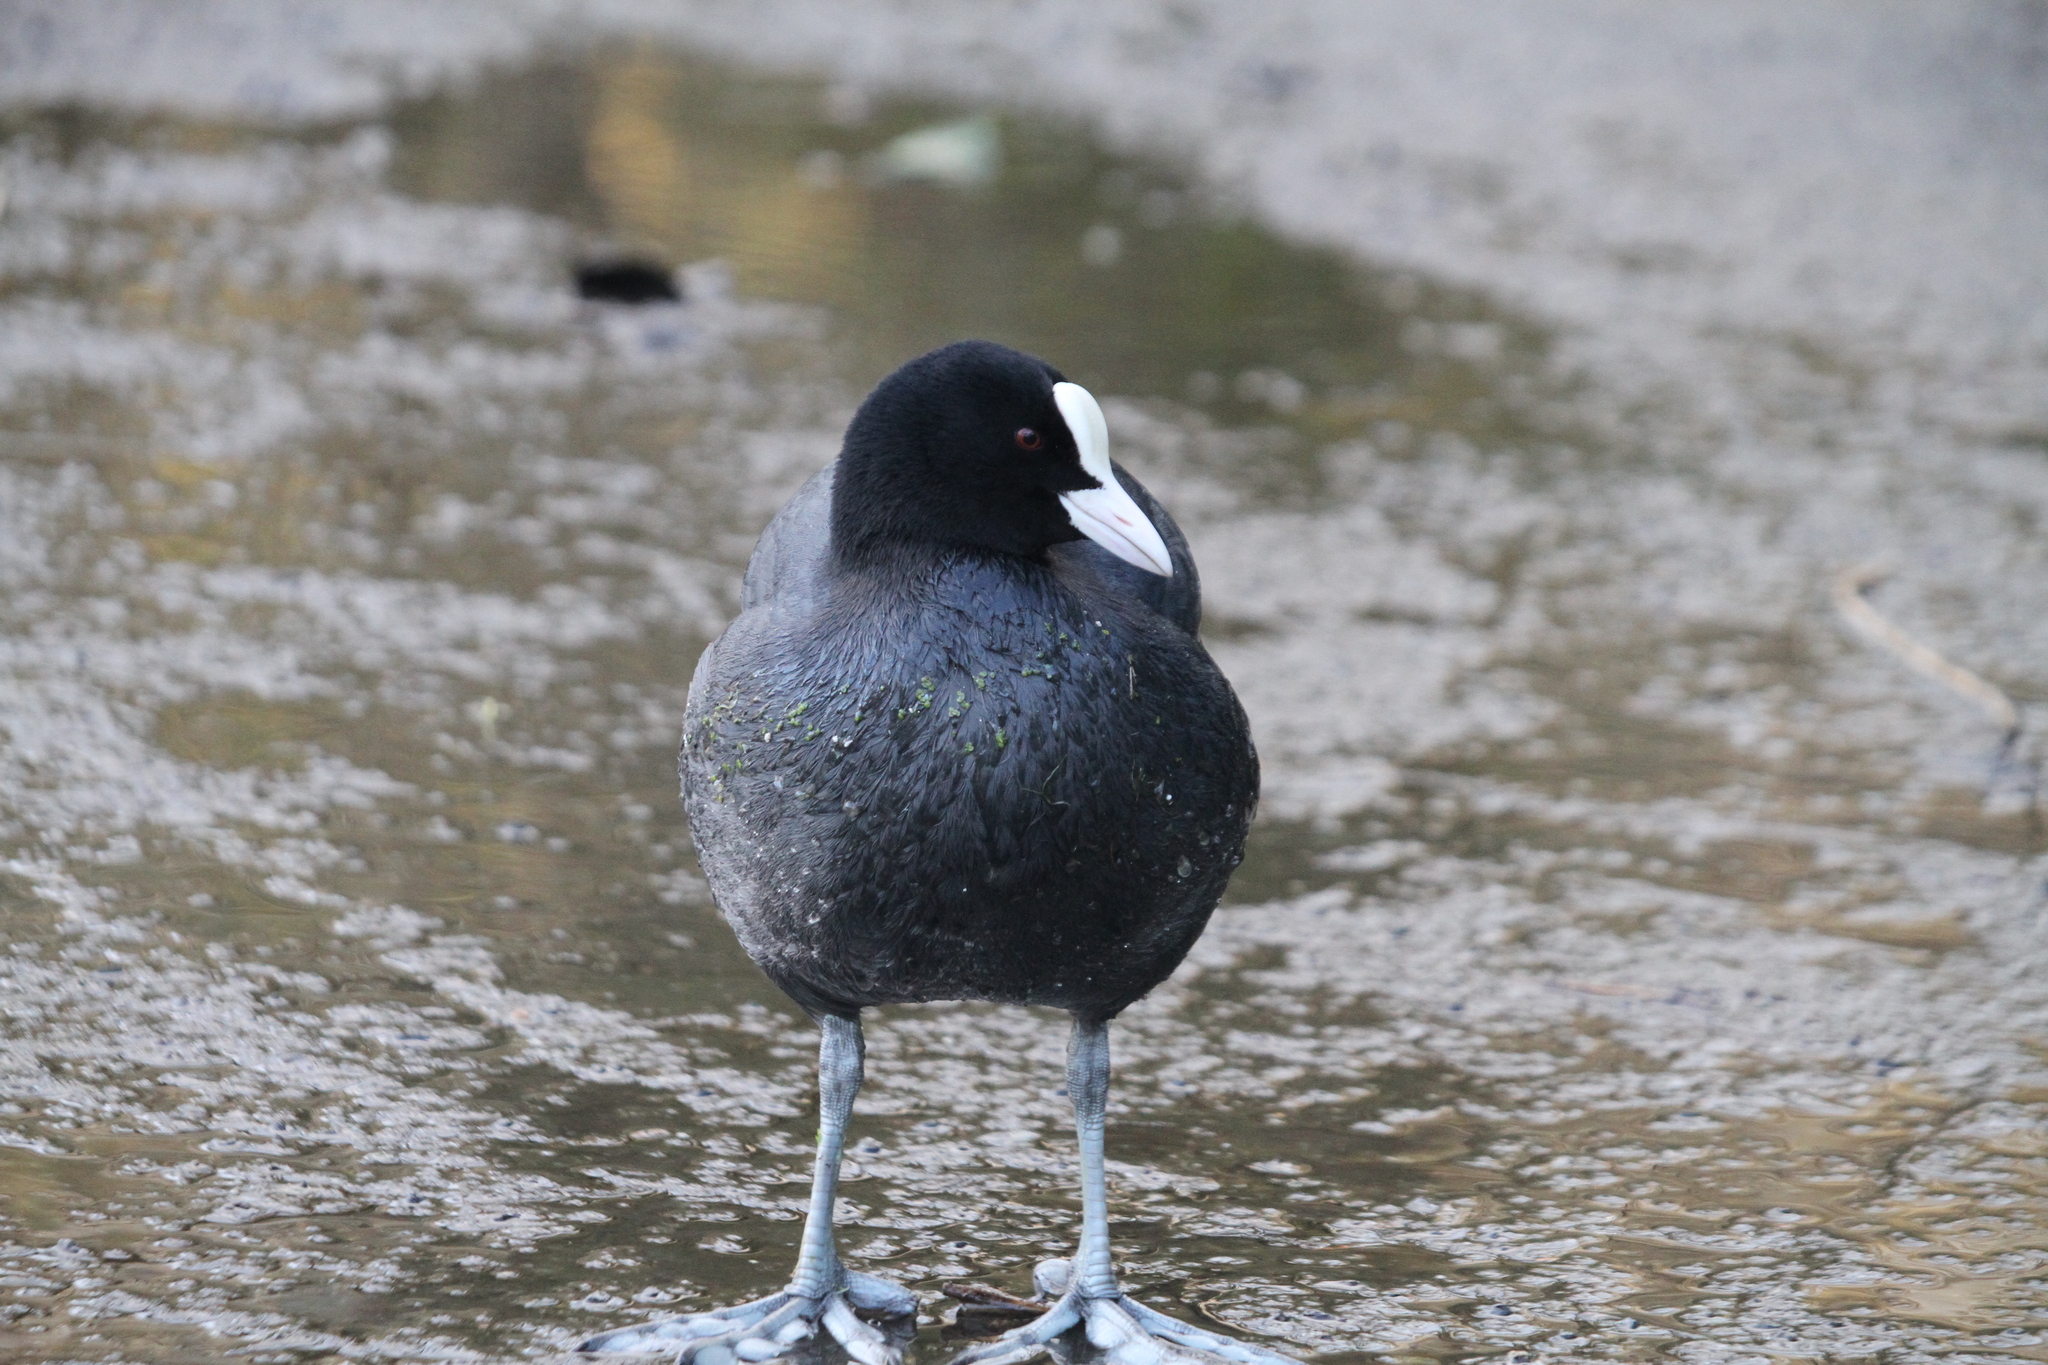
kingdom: Animalia
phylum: Chordata
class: Aves
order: Gruiformes
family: Rallidae
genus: Fulica
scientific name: Fulica atra
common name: Eurasian coot
